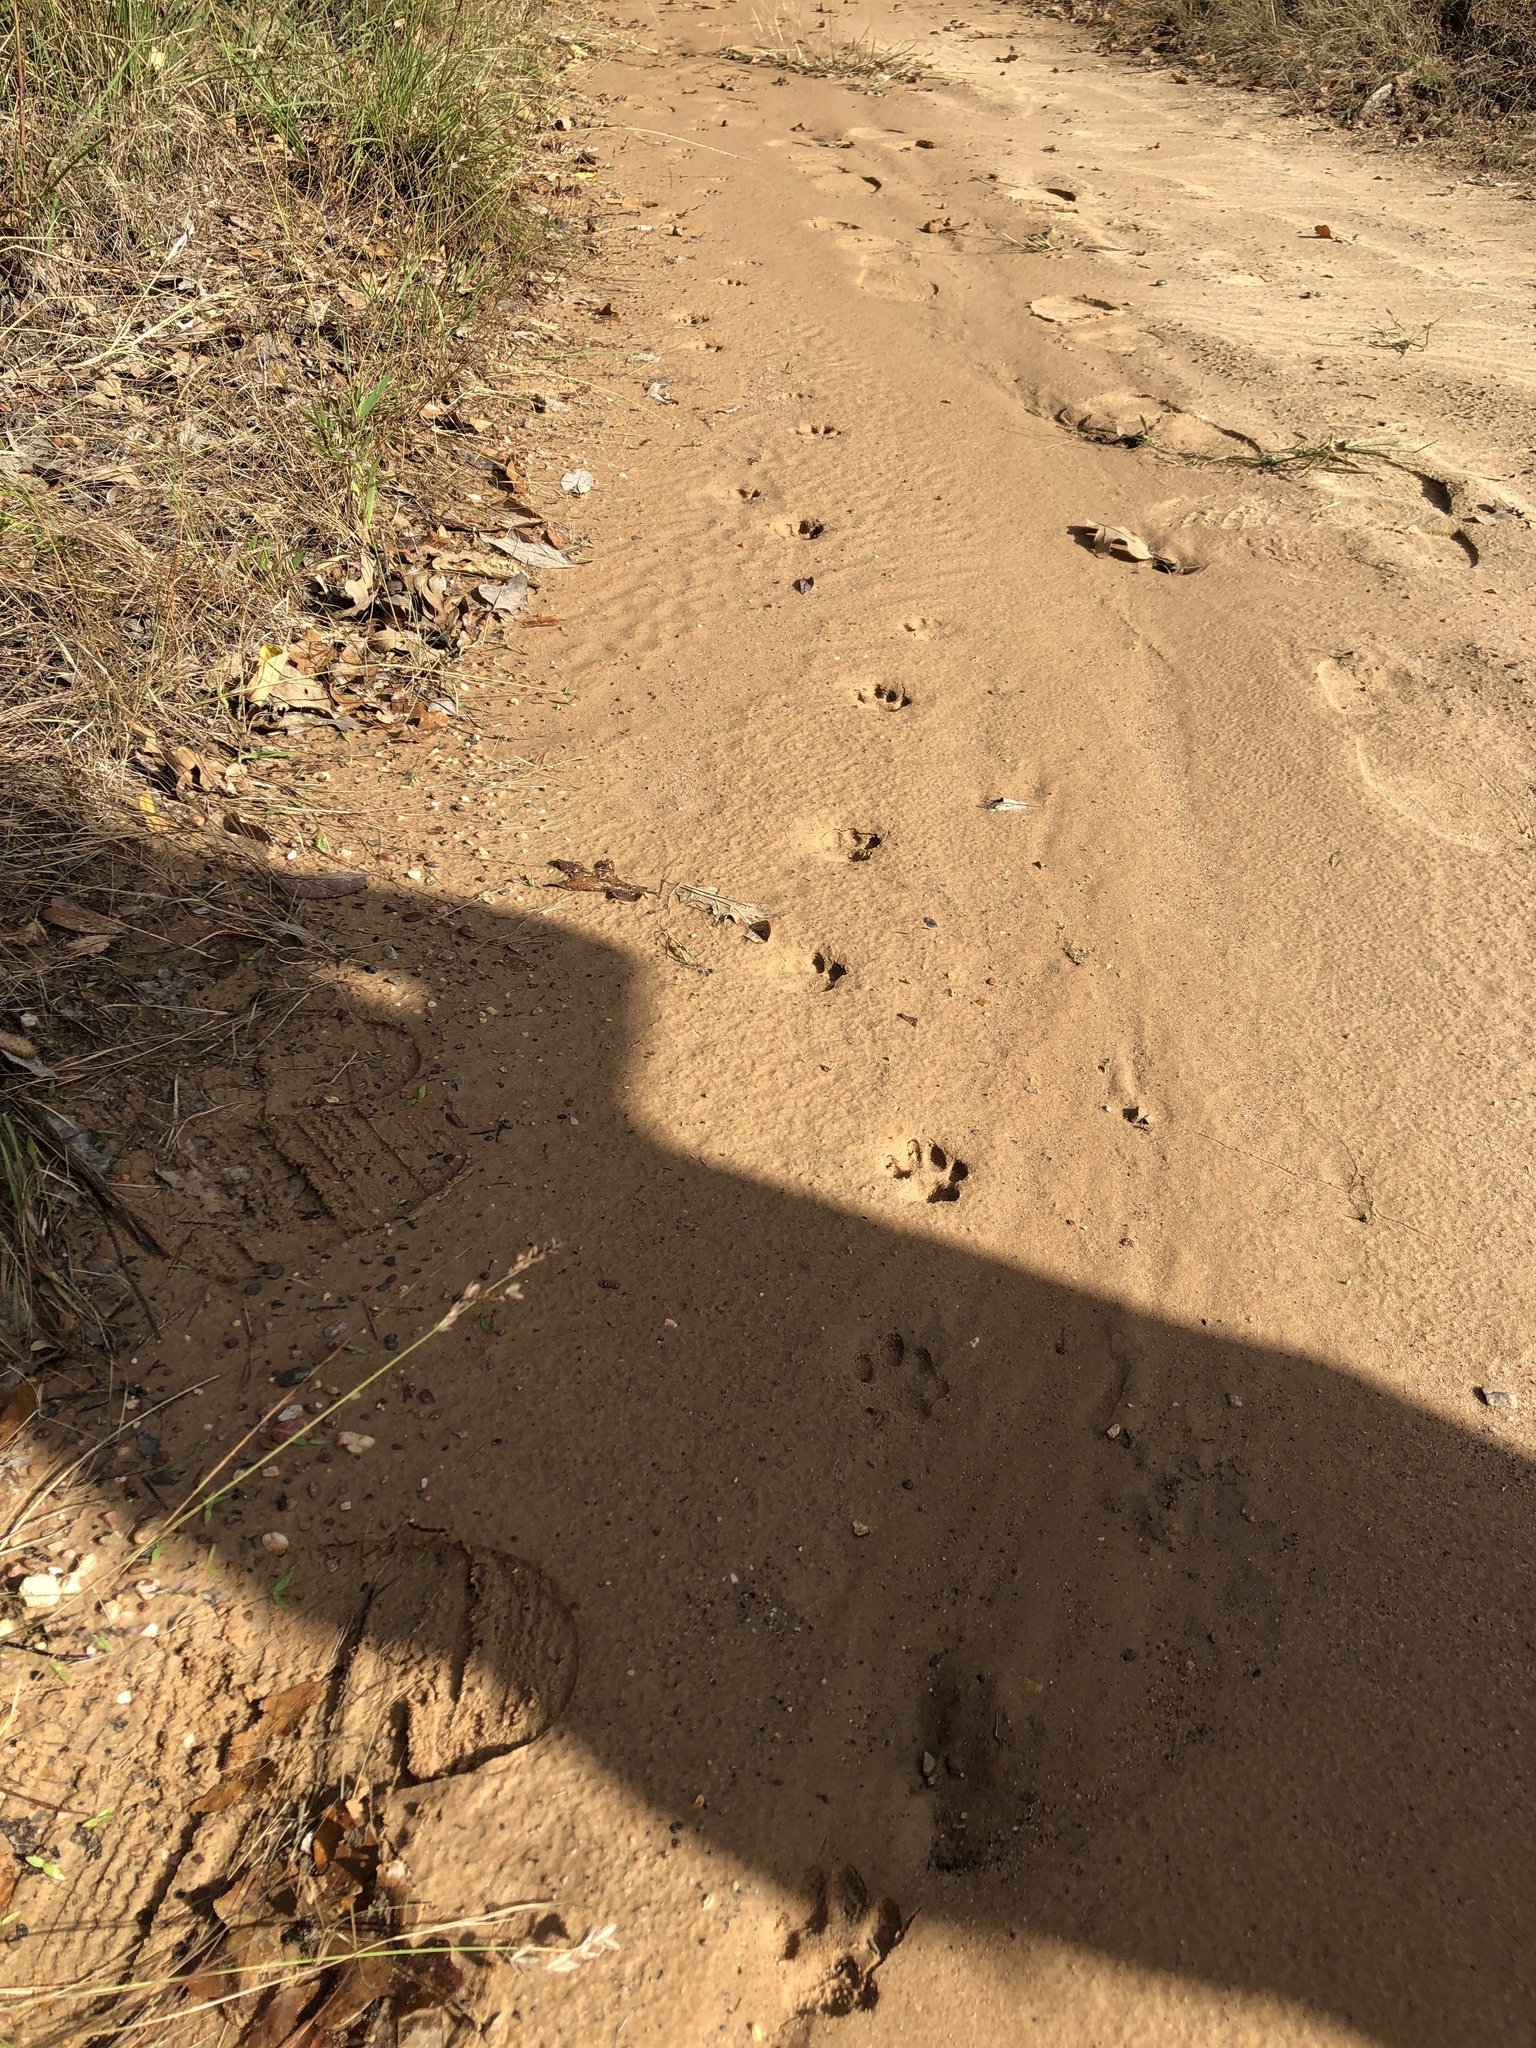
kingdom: Animalia
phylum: Chordata
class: Mammalia
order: Carnivora
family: Felidae
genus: Lynx
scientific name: Lynx rufus
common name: Bobcat
